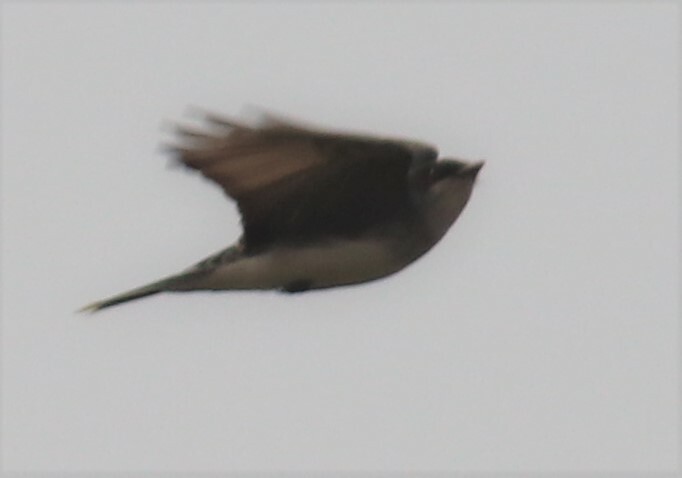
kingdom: Animalia
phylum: Chordata
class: Aves
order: Passeriformes
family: Tyrannidae
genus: Tyrannus
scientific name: Tyrannus tyrannus
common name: Eastern kingbird
